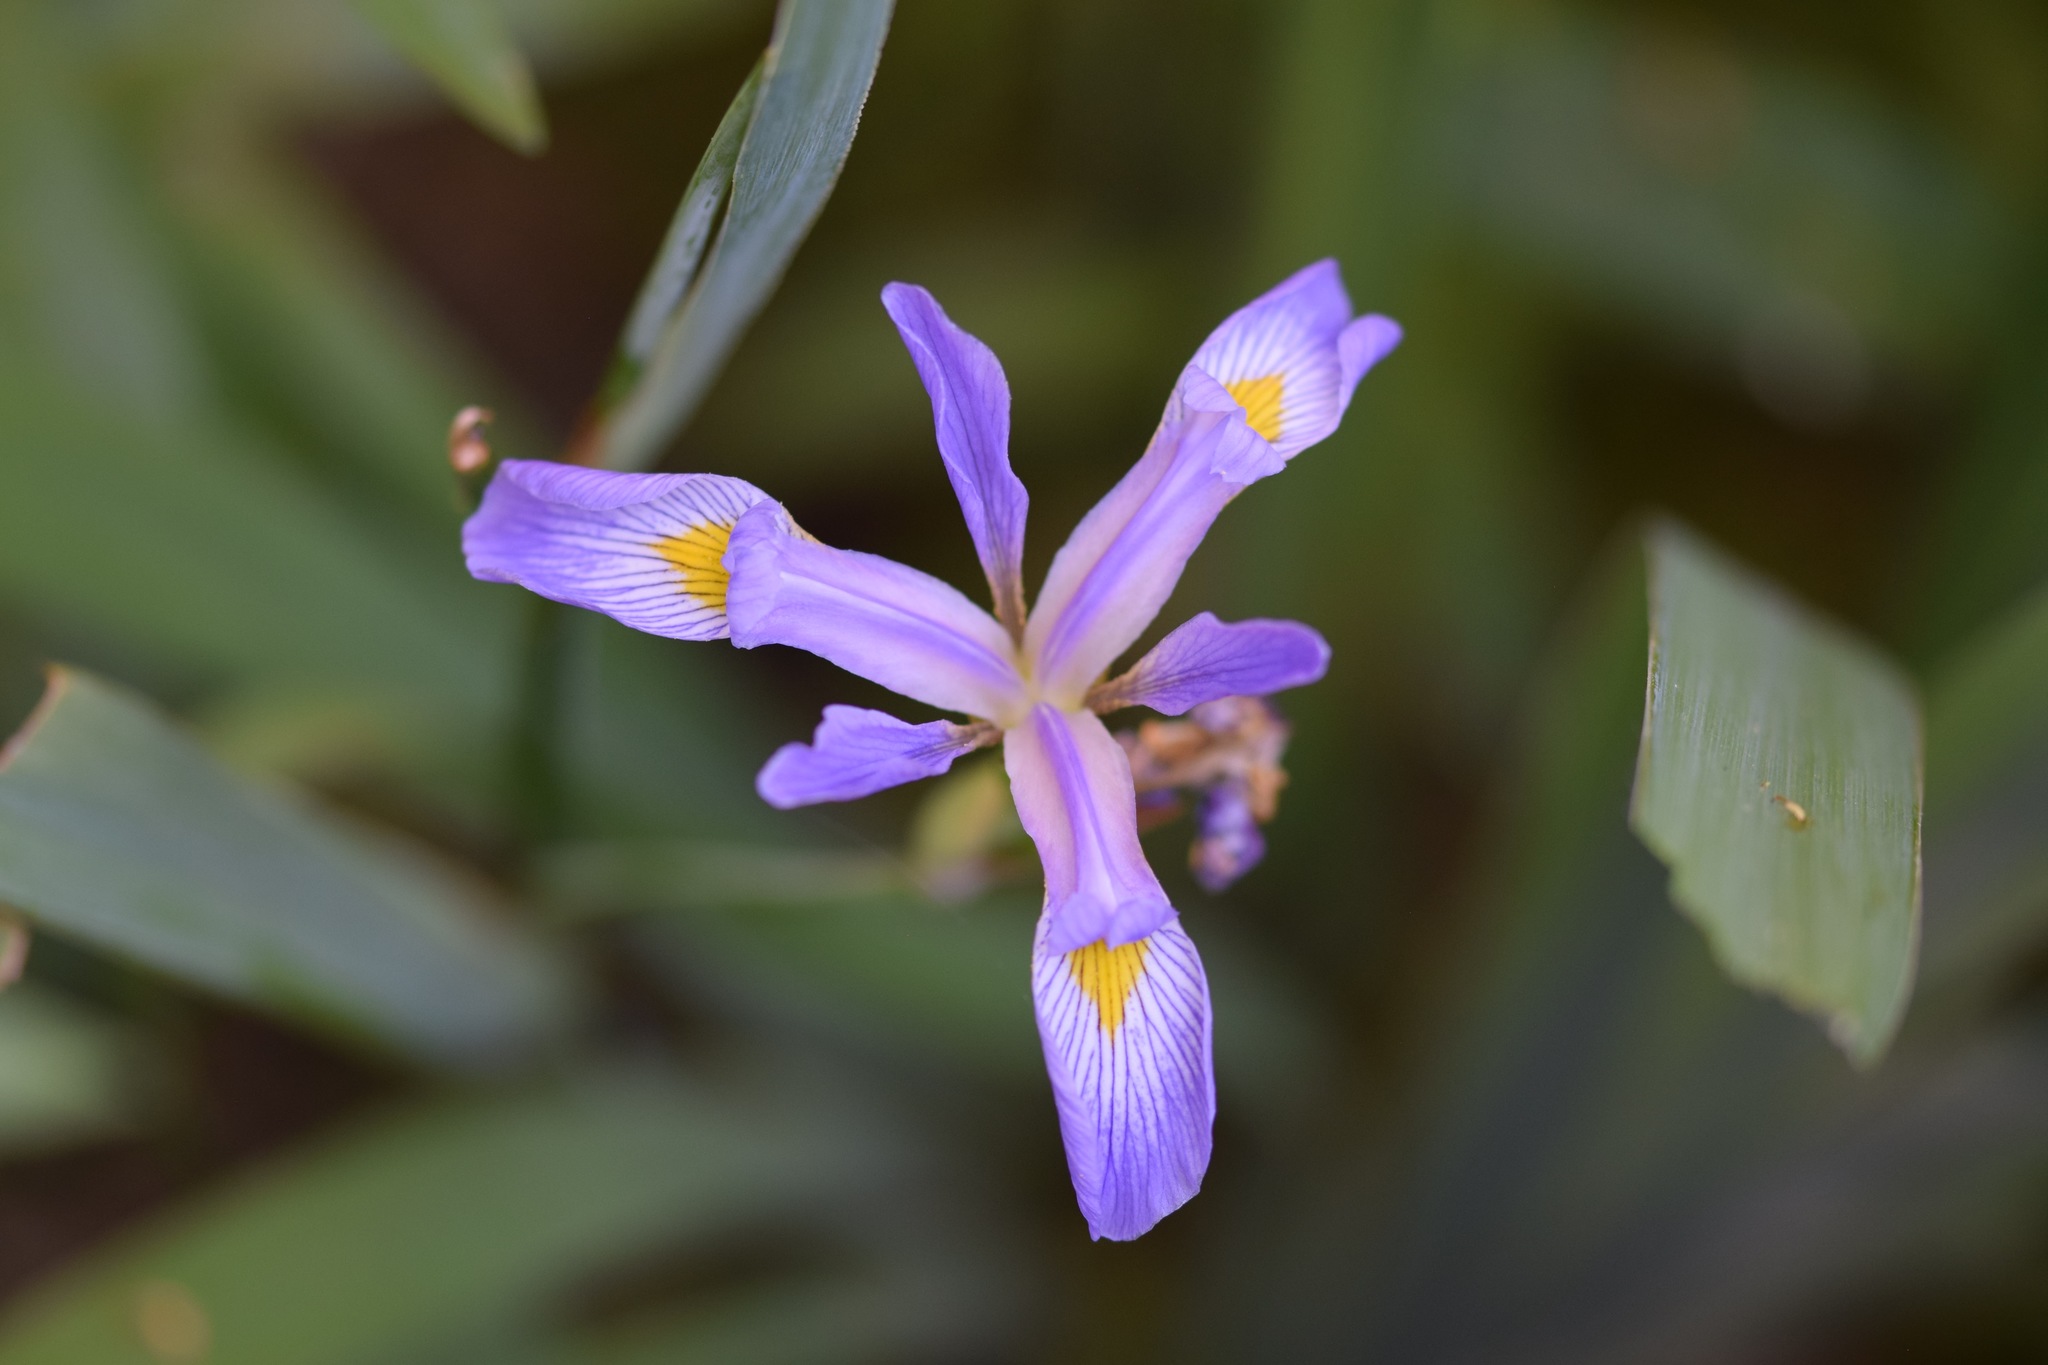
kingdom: Plantae
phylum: Tracheophyta
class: Liliopsida
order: Asparagales
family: Iridaceae
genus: Iris
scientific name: Iris virginica
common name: Southern blue flag
